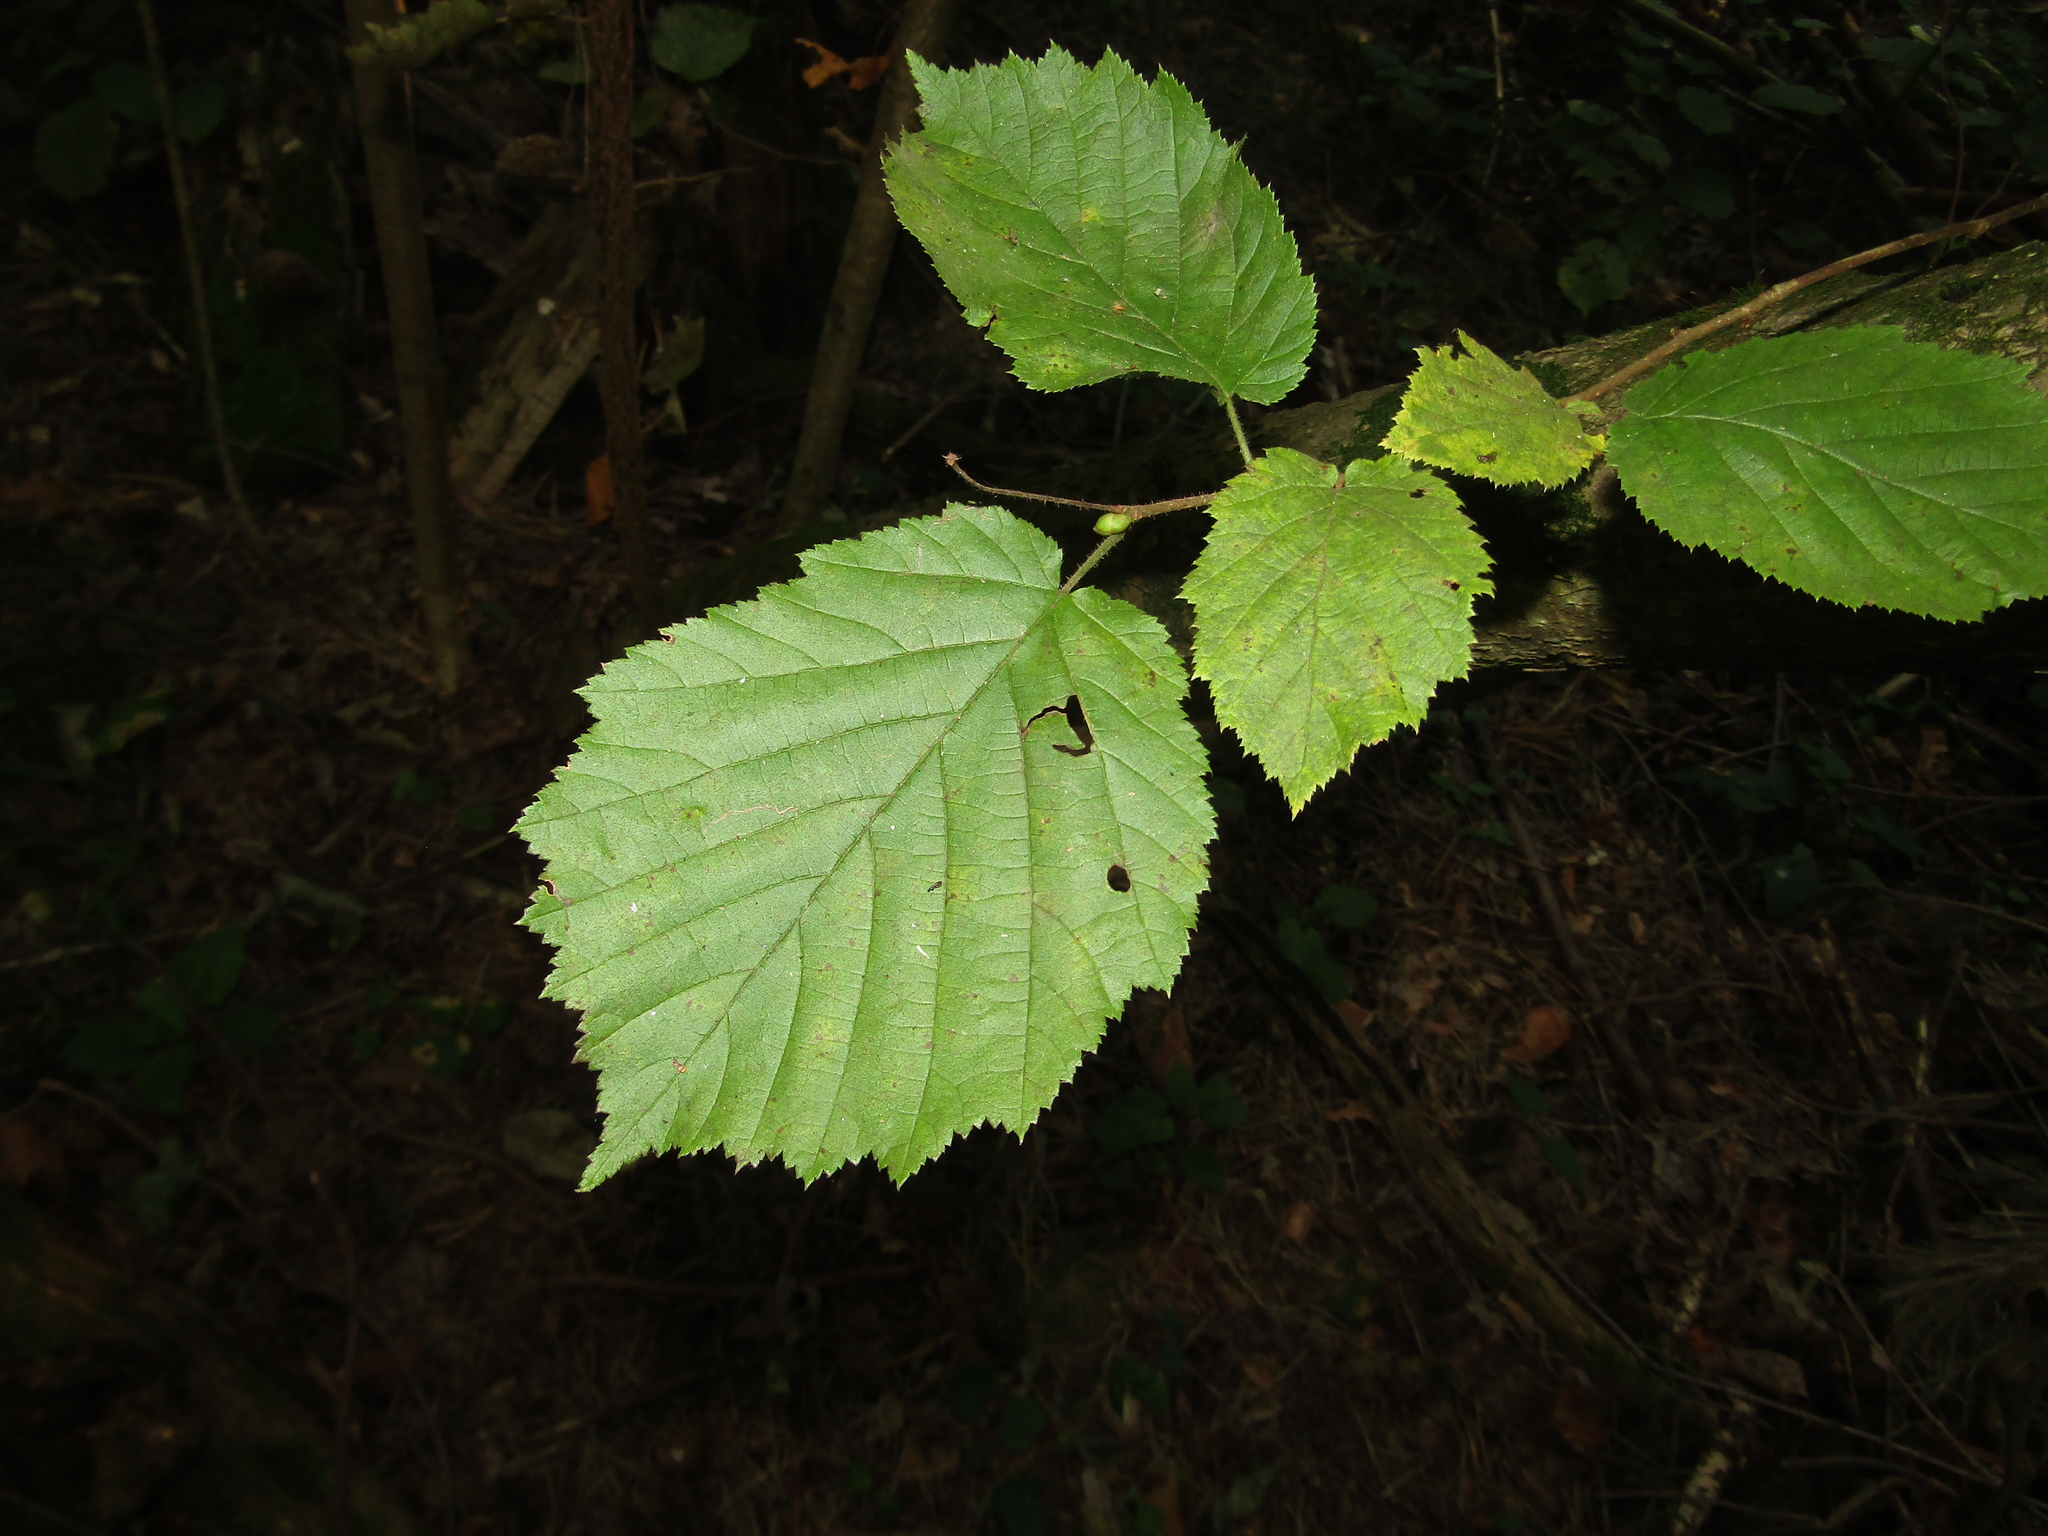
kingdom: Plantae
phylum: Tracheophyta
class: Magnoliopsida
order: Fagales
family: Betulaceae
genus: Corylus
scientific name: Corylus avellana
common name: European hazel
